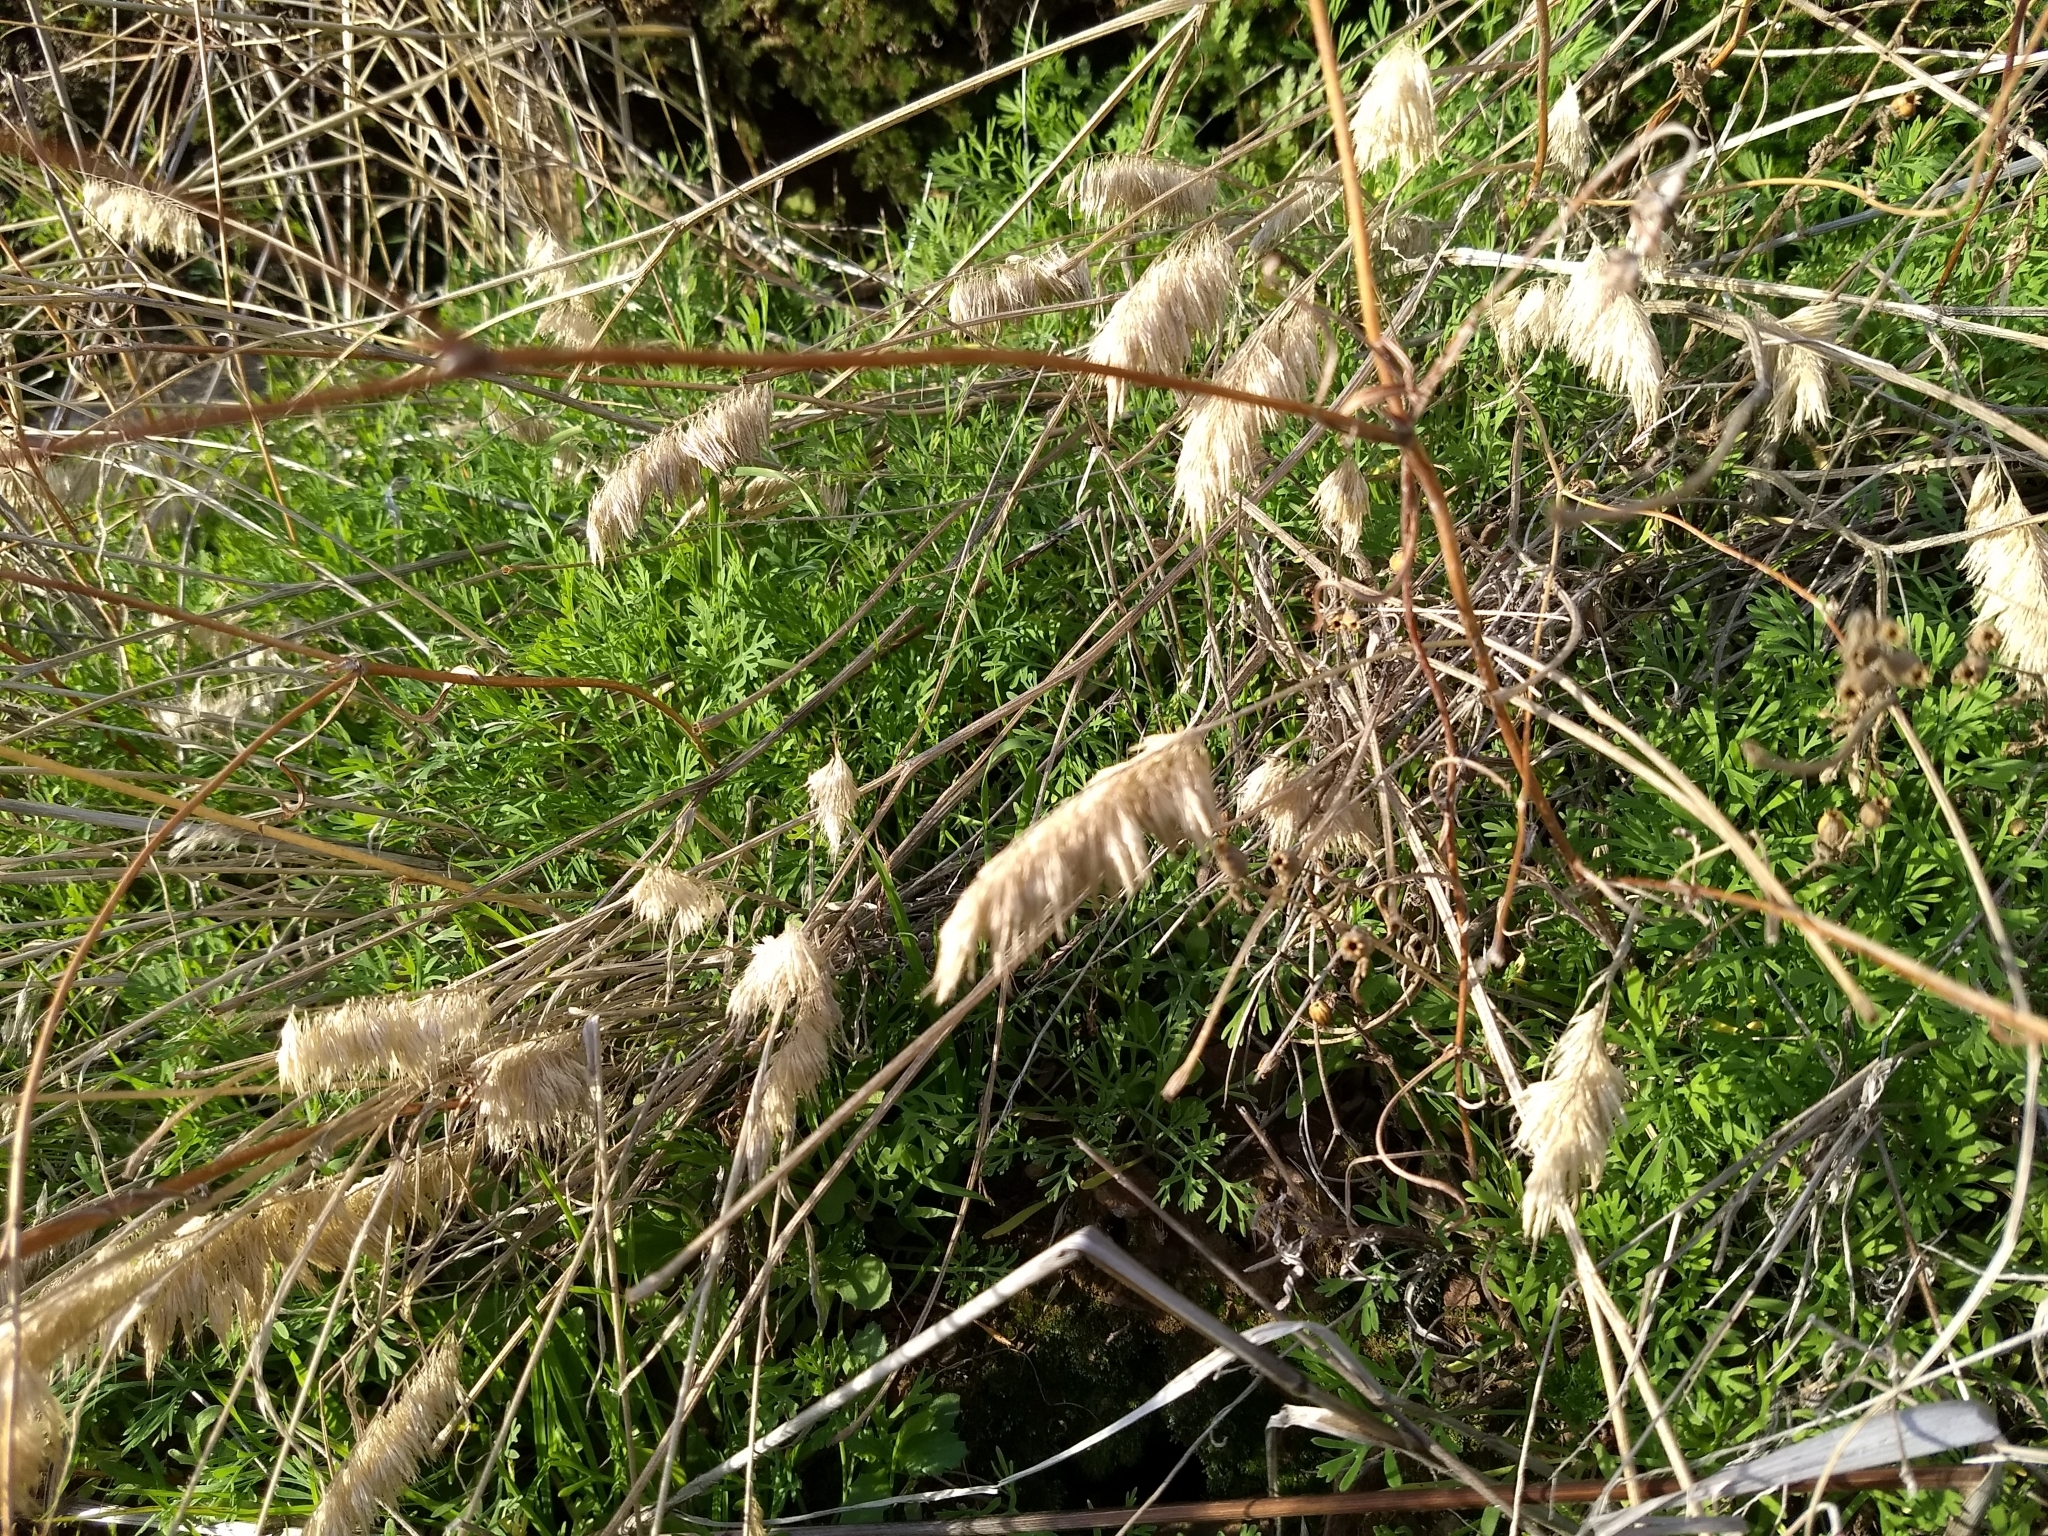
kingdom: Plantae
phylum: Tracheophyta
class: Liliopsida
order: Poales
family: Poaceae
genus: Lamarckia
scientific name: Lamarckia aurea
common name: Golden dog's-tail
